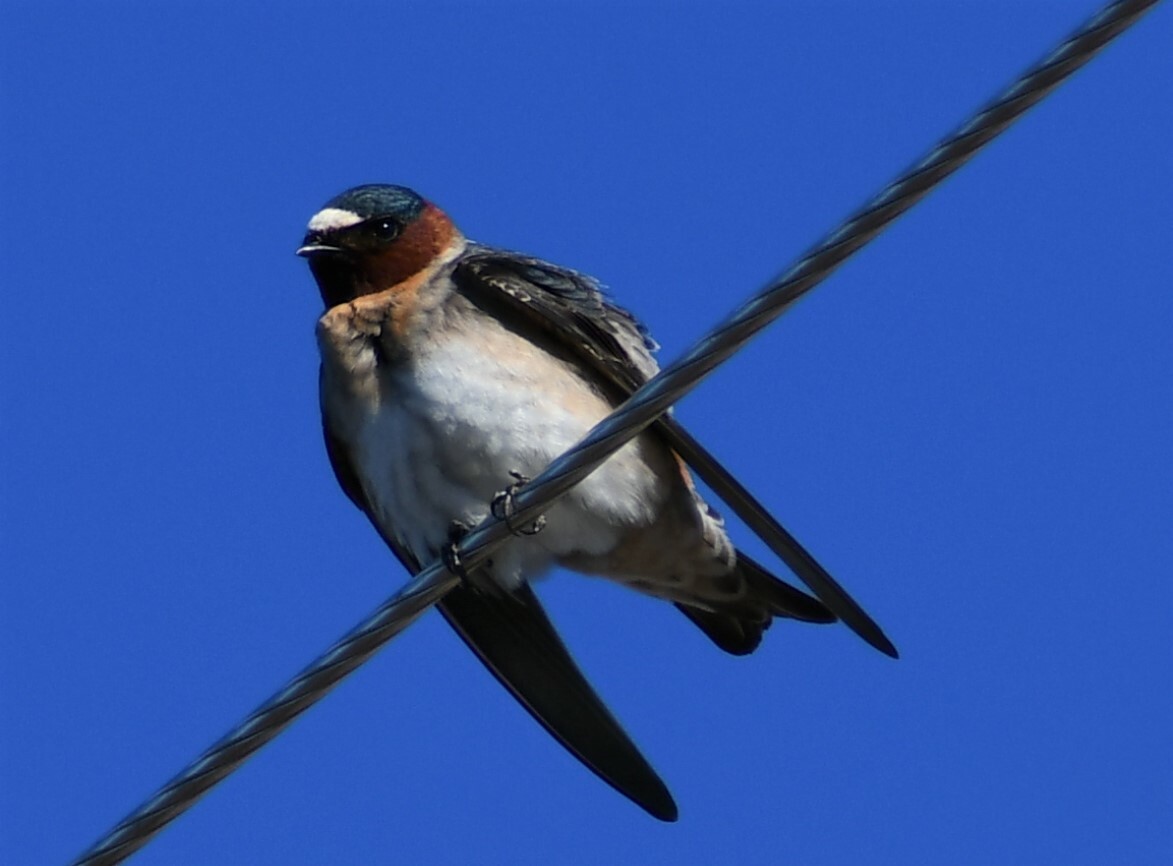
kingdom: Animalia
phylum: Chordata
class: Aves
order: Passeriformes
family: Hirundinidae
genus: Petrochelidon
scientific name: Petrochelidon pyrrhonota
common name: American cliff swallow
